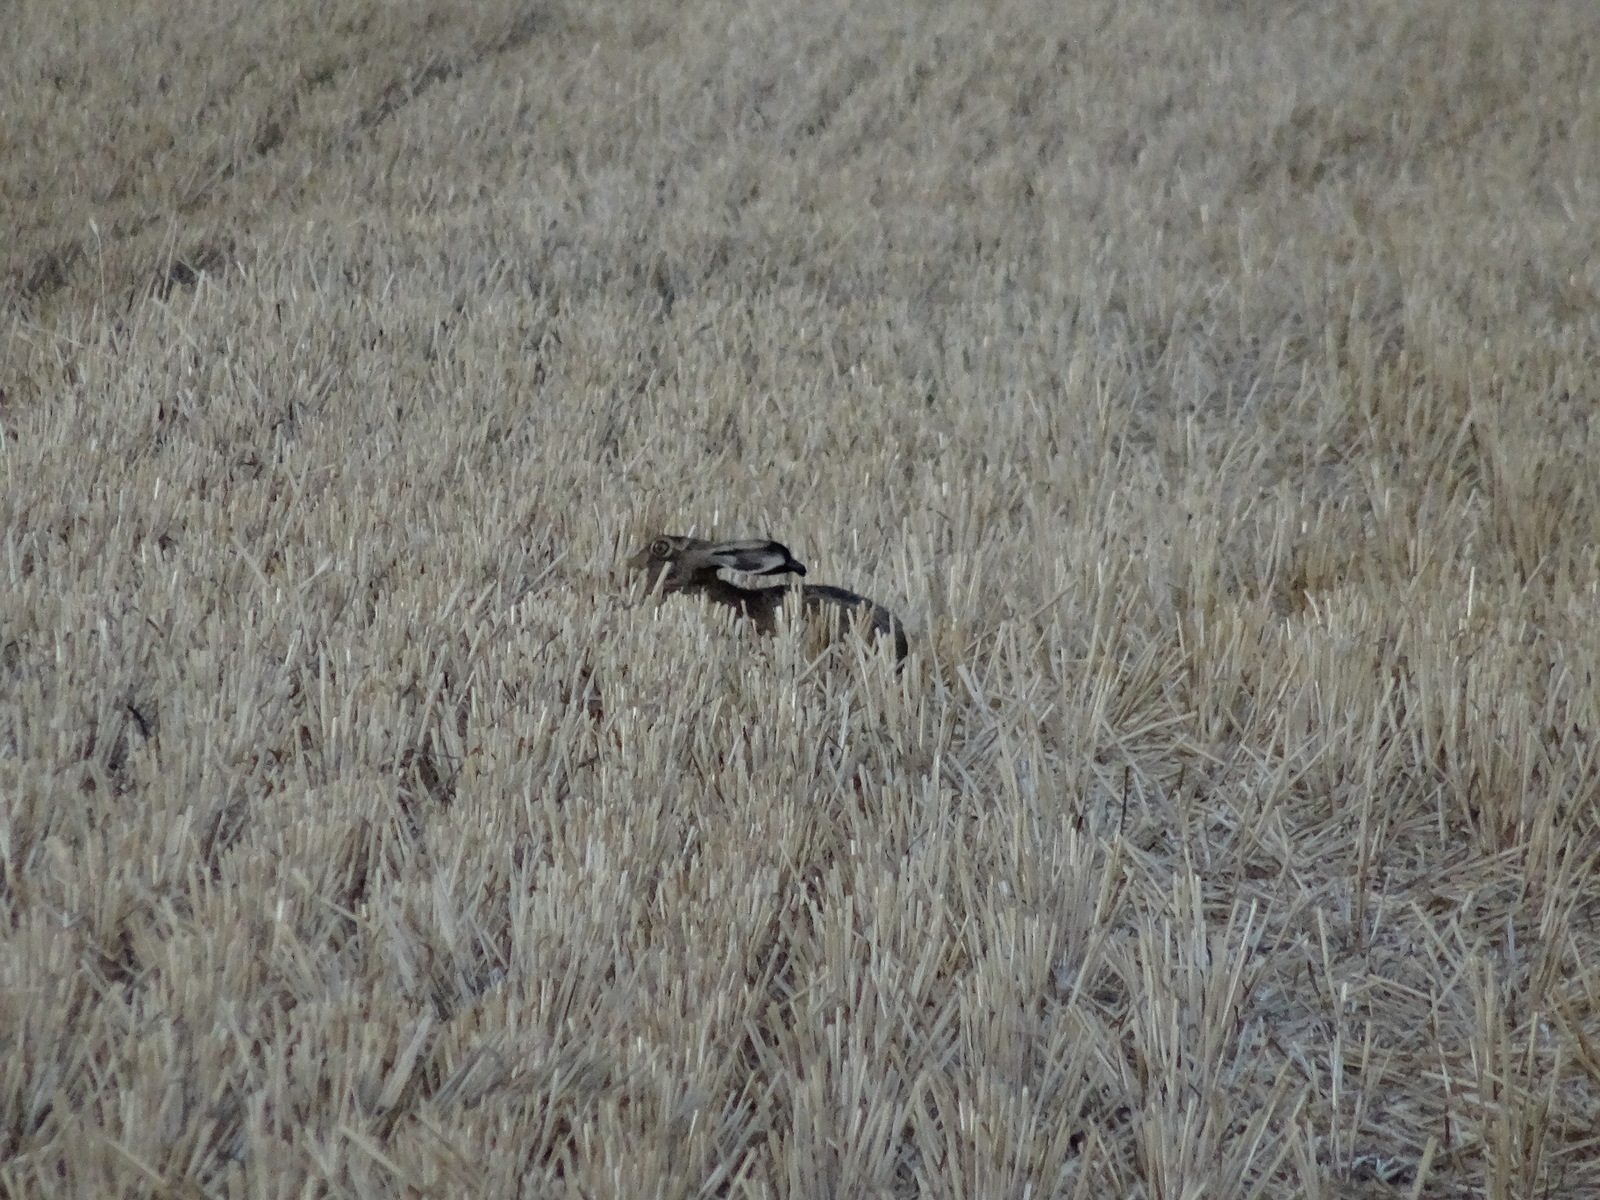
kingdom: Animalia
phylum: Chordata
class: Mammalia
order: Lagomorpha
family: Leporidae
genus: Lepus
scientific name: Lepus europaeus
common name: European hare
